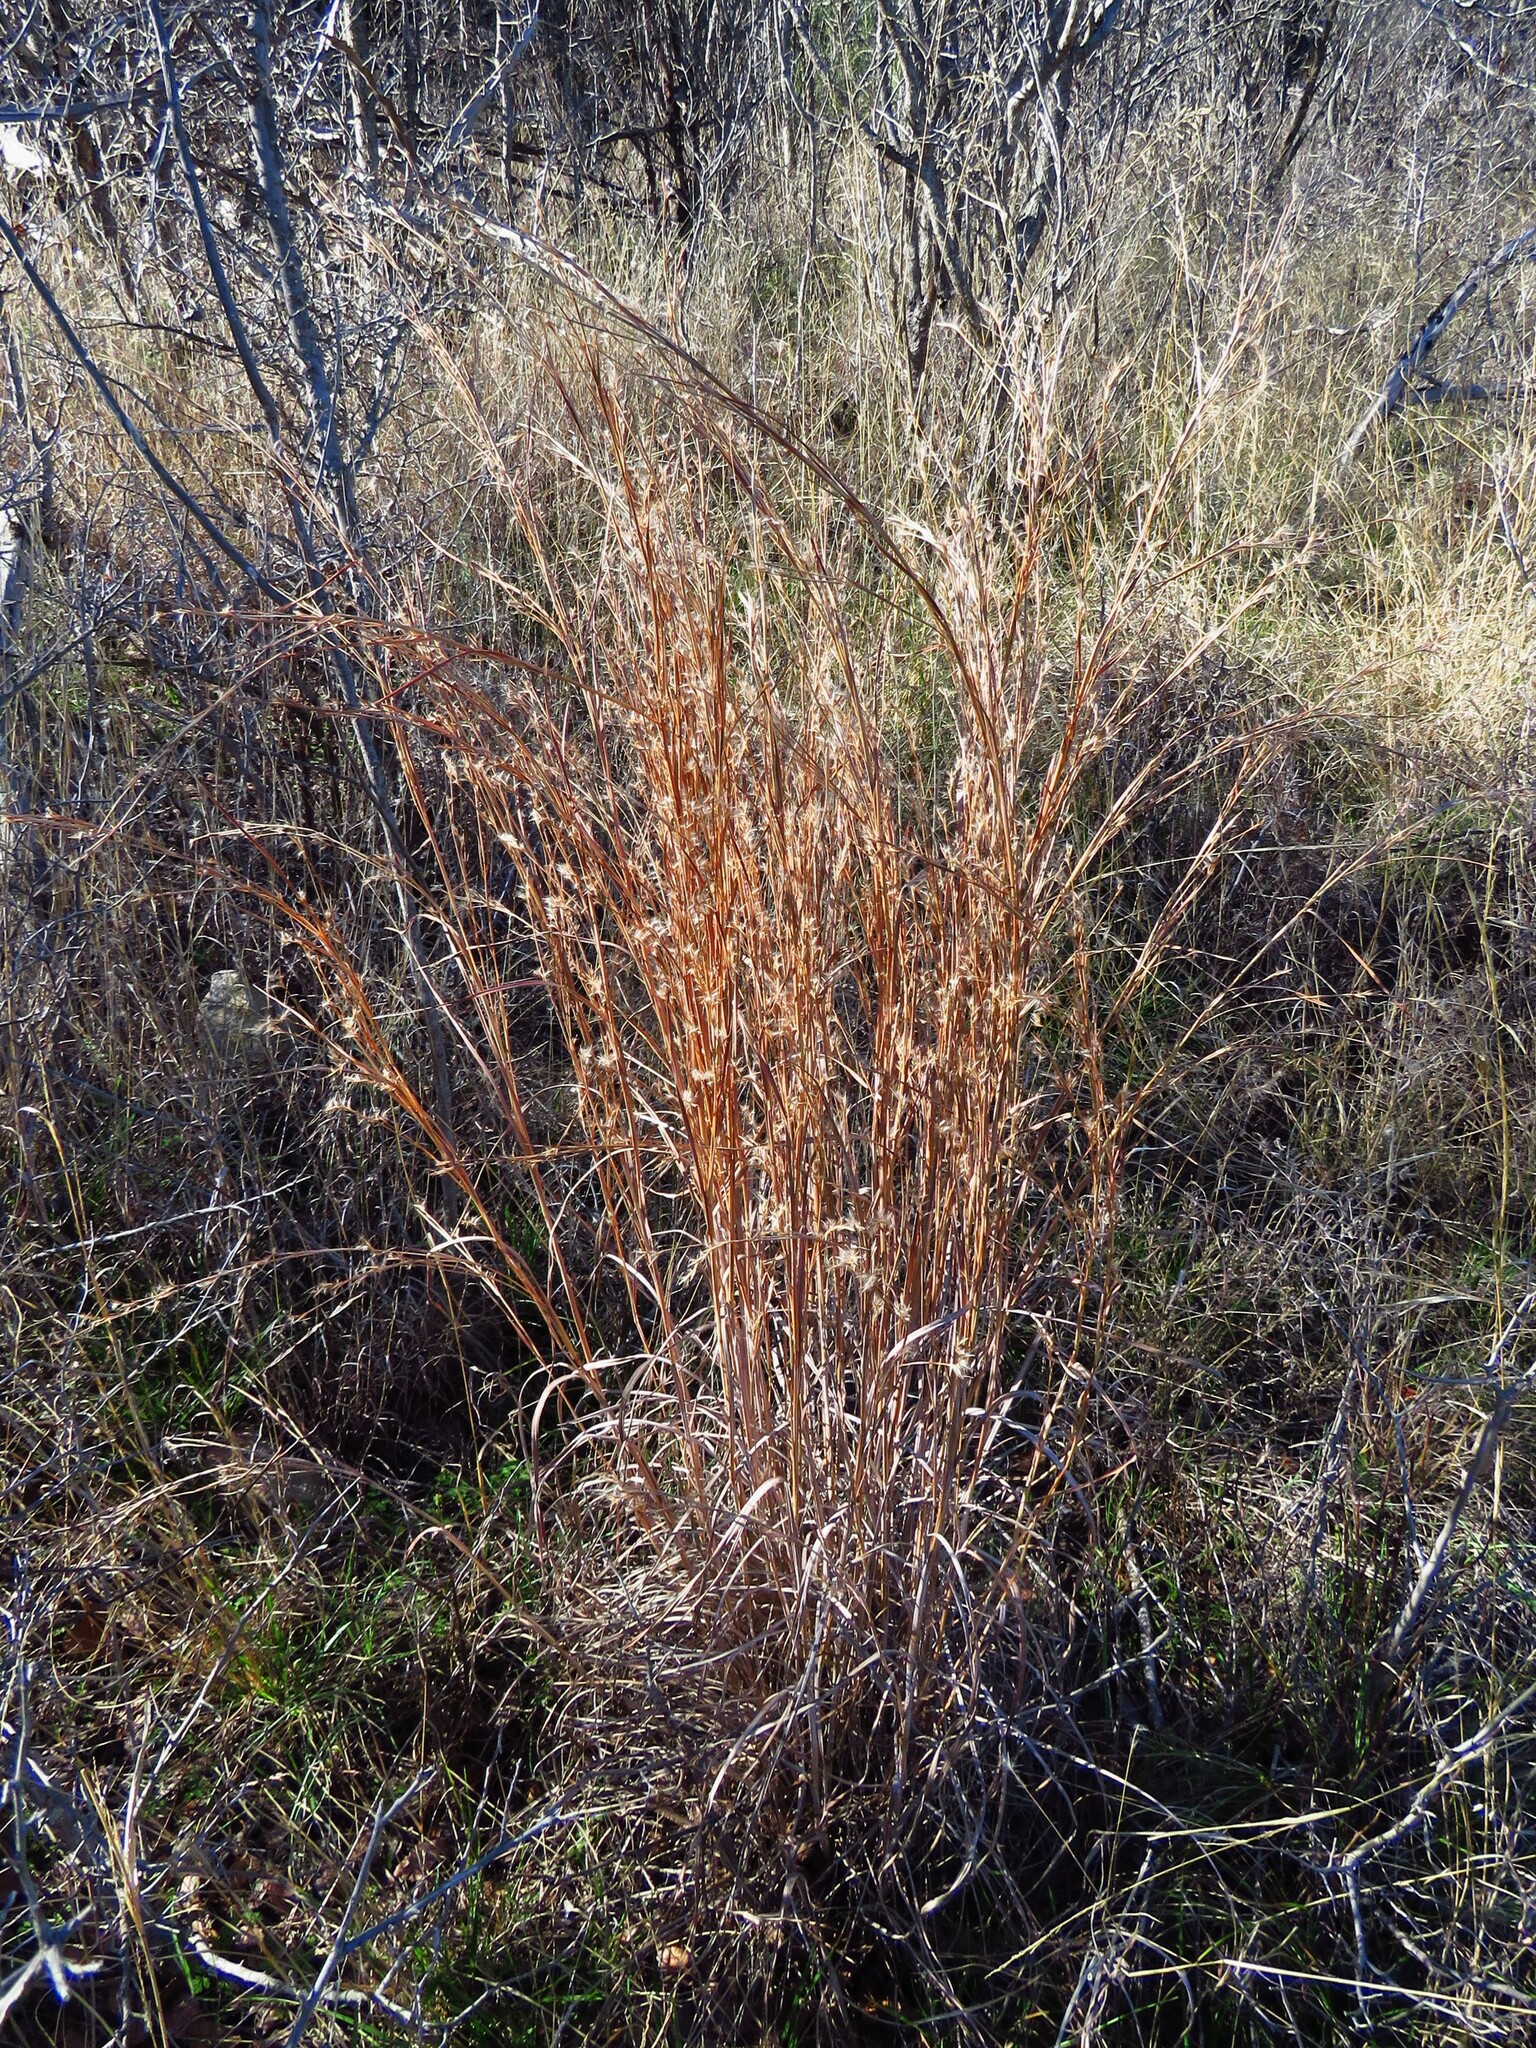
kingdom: Plantae
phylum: Tracheophyta
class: Liliopsida
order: Poales
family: Poaceae
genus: Schizachyrium
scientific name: Schizachyrium scoparium
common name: Little bluestem
